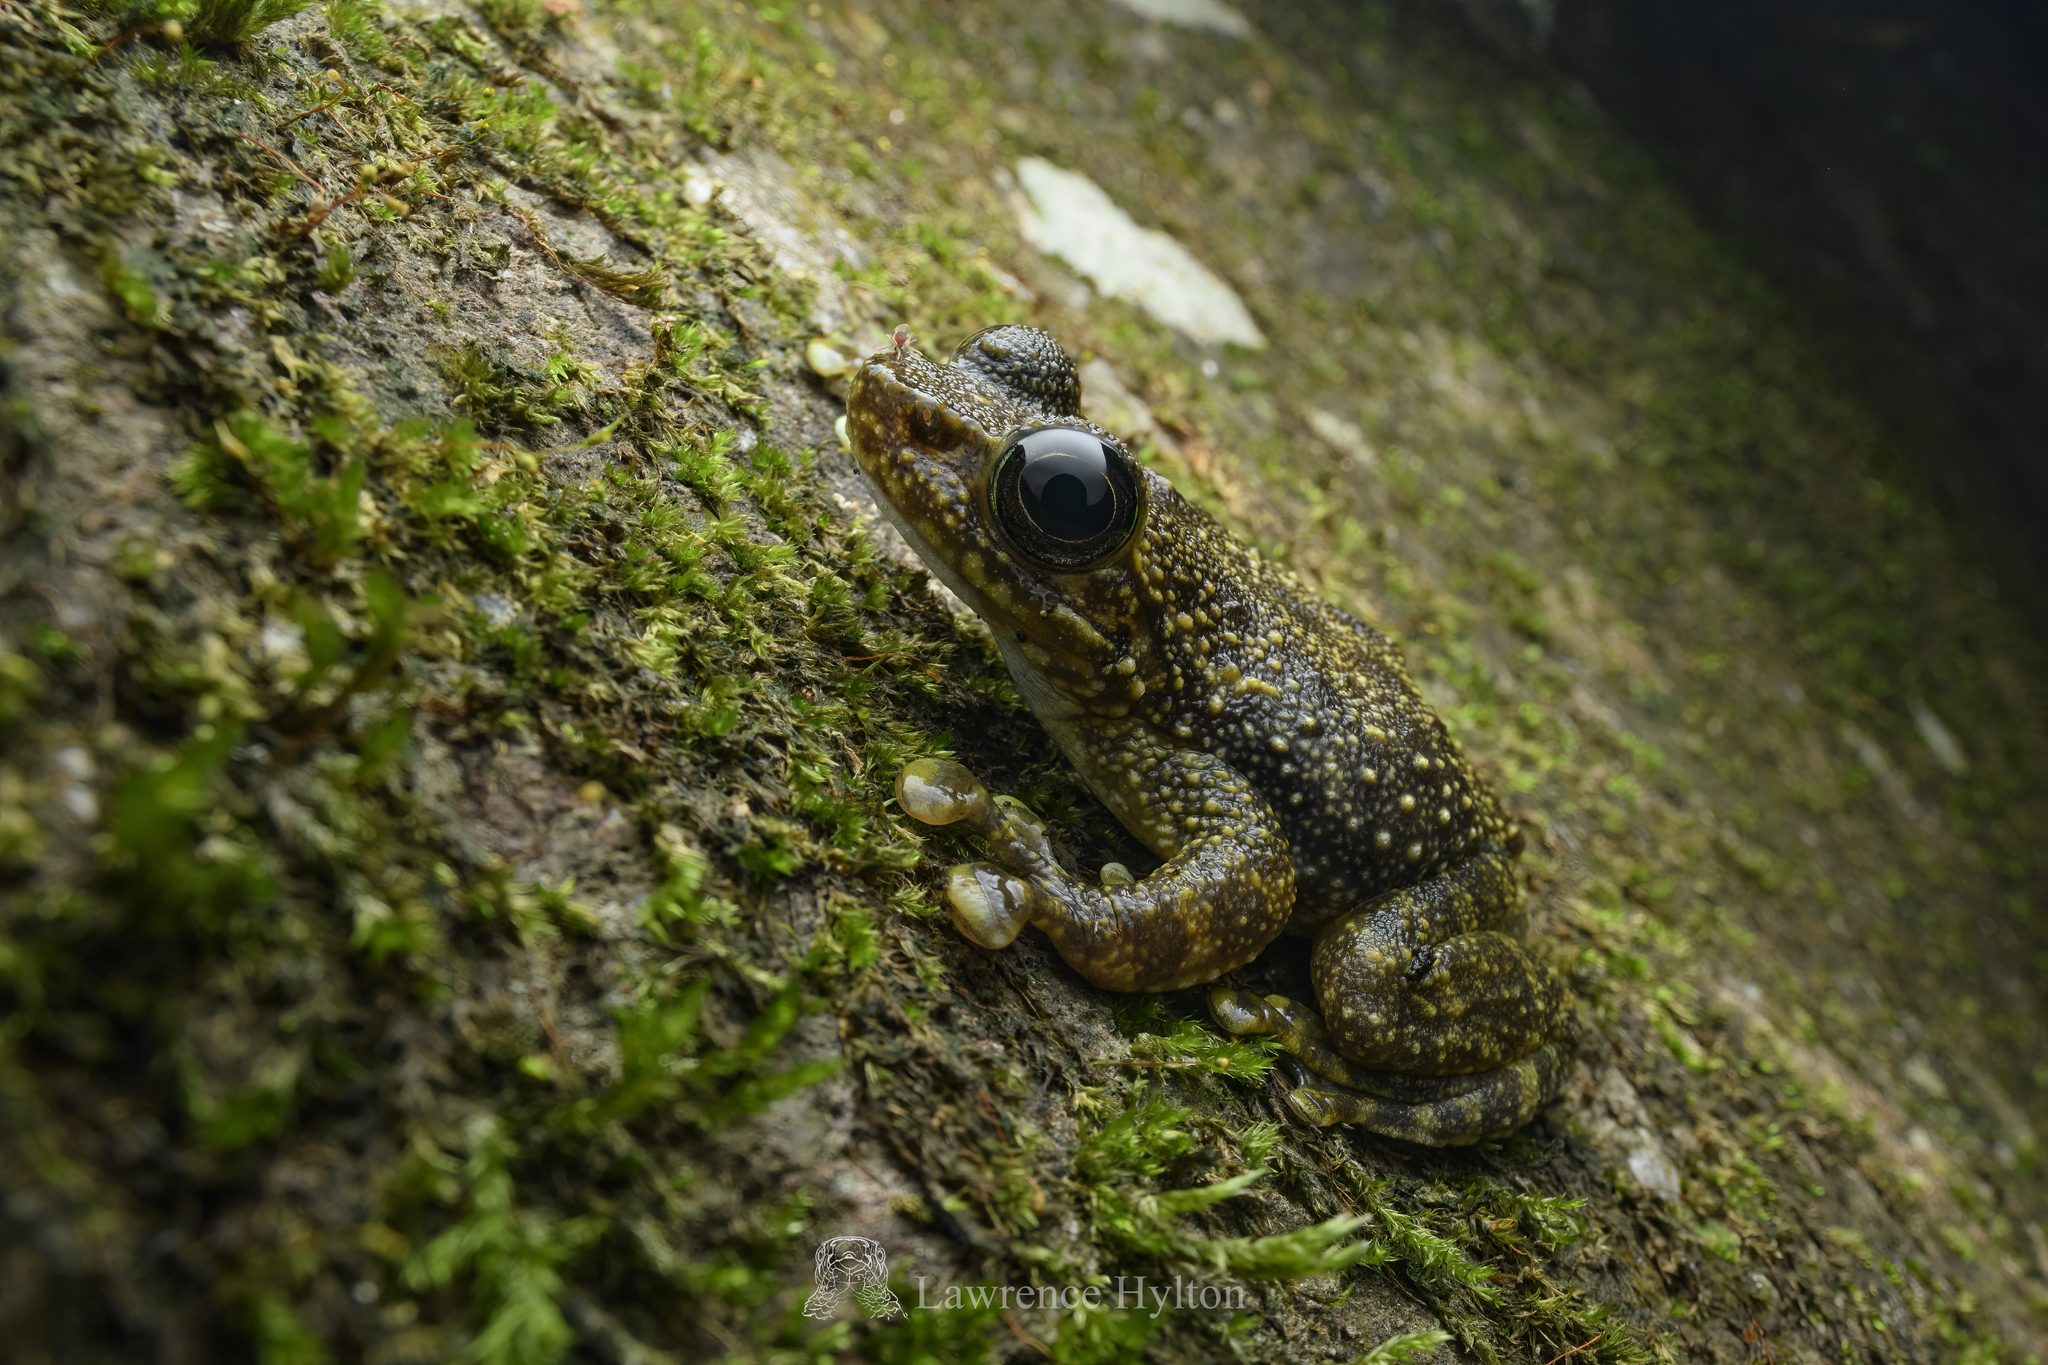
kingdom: Animalia
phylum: Chordata
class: Amphibia
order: Anura
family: Ranidae
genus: Amolops
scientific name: Amolops hongkongensis
